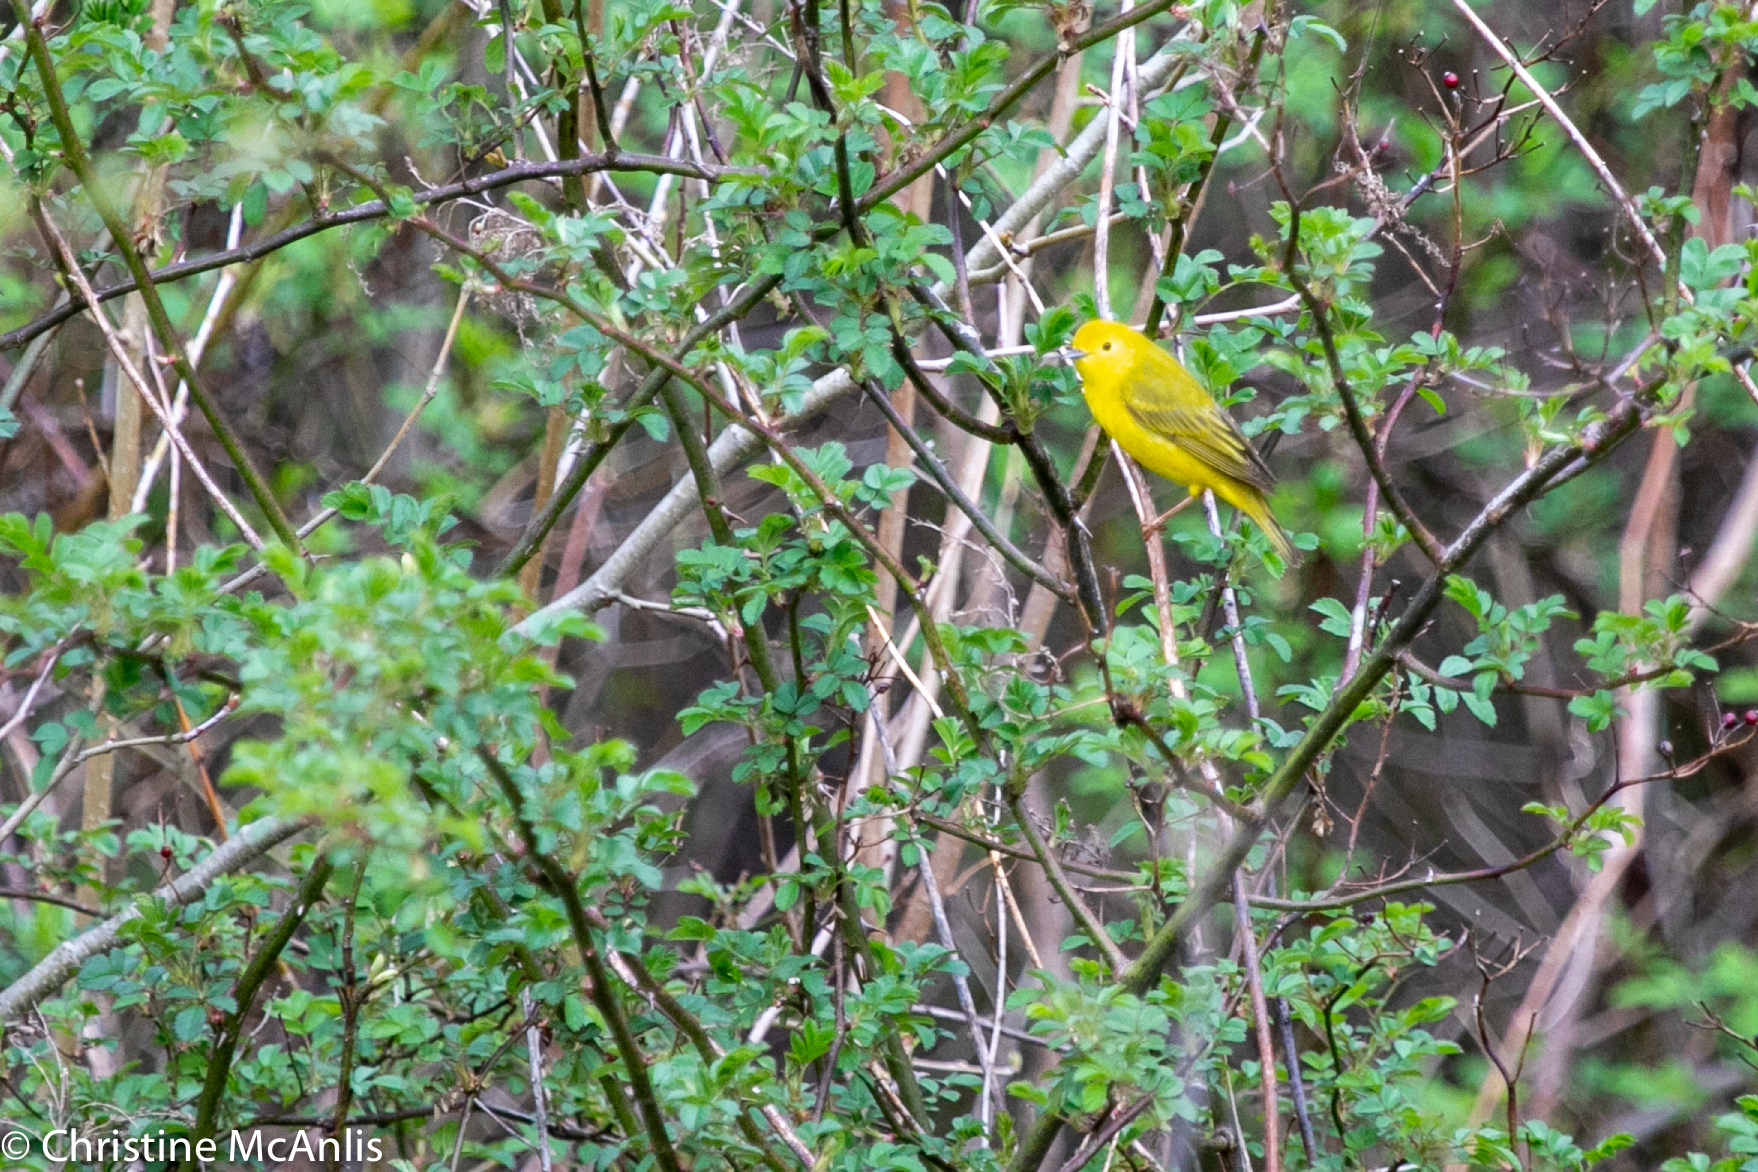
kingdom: Animalia
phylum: Chordata
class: Aves
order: Passeriformes
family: Parulidae
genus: Setophaga
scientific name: Setophaga petechia
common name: Yellow warbler
